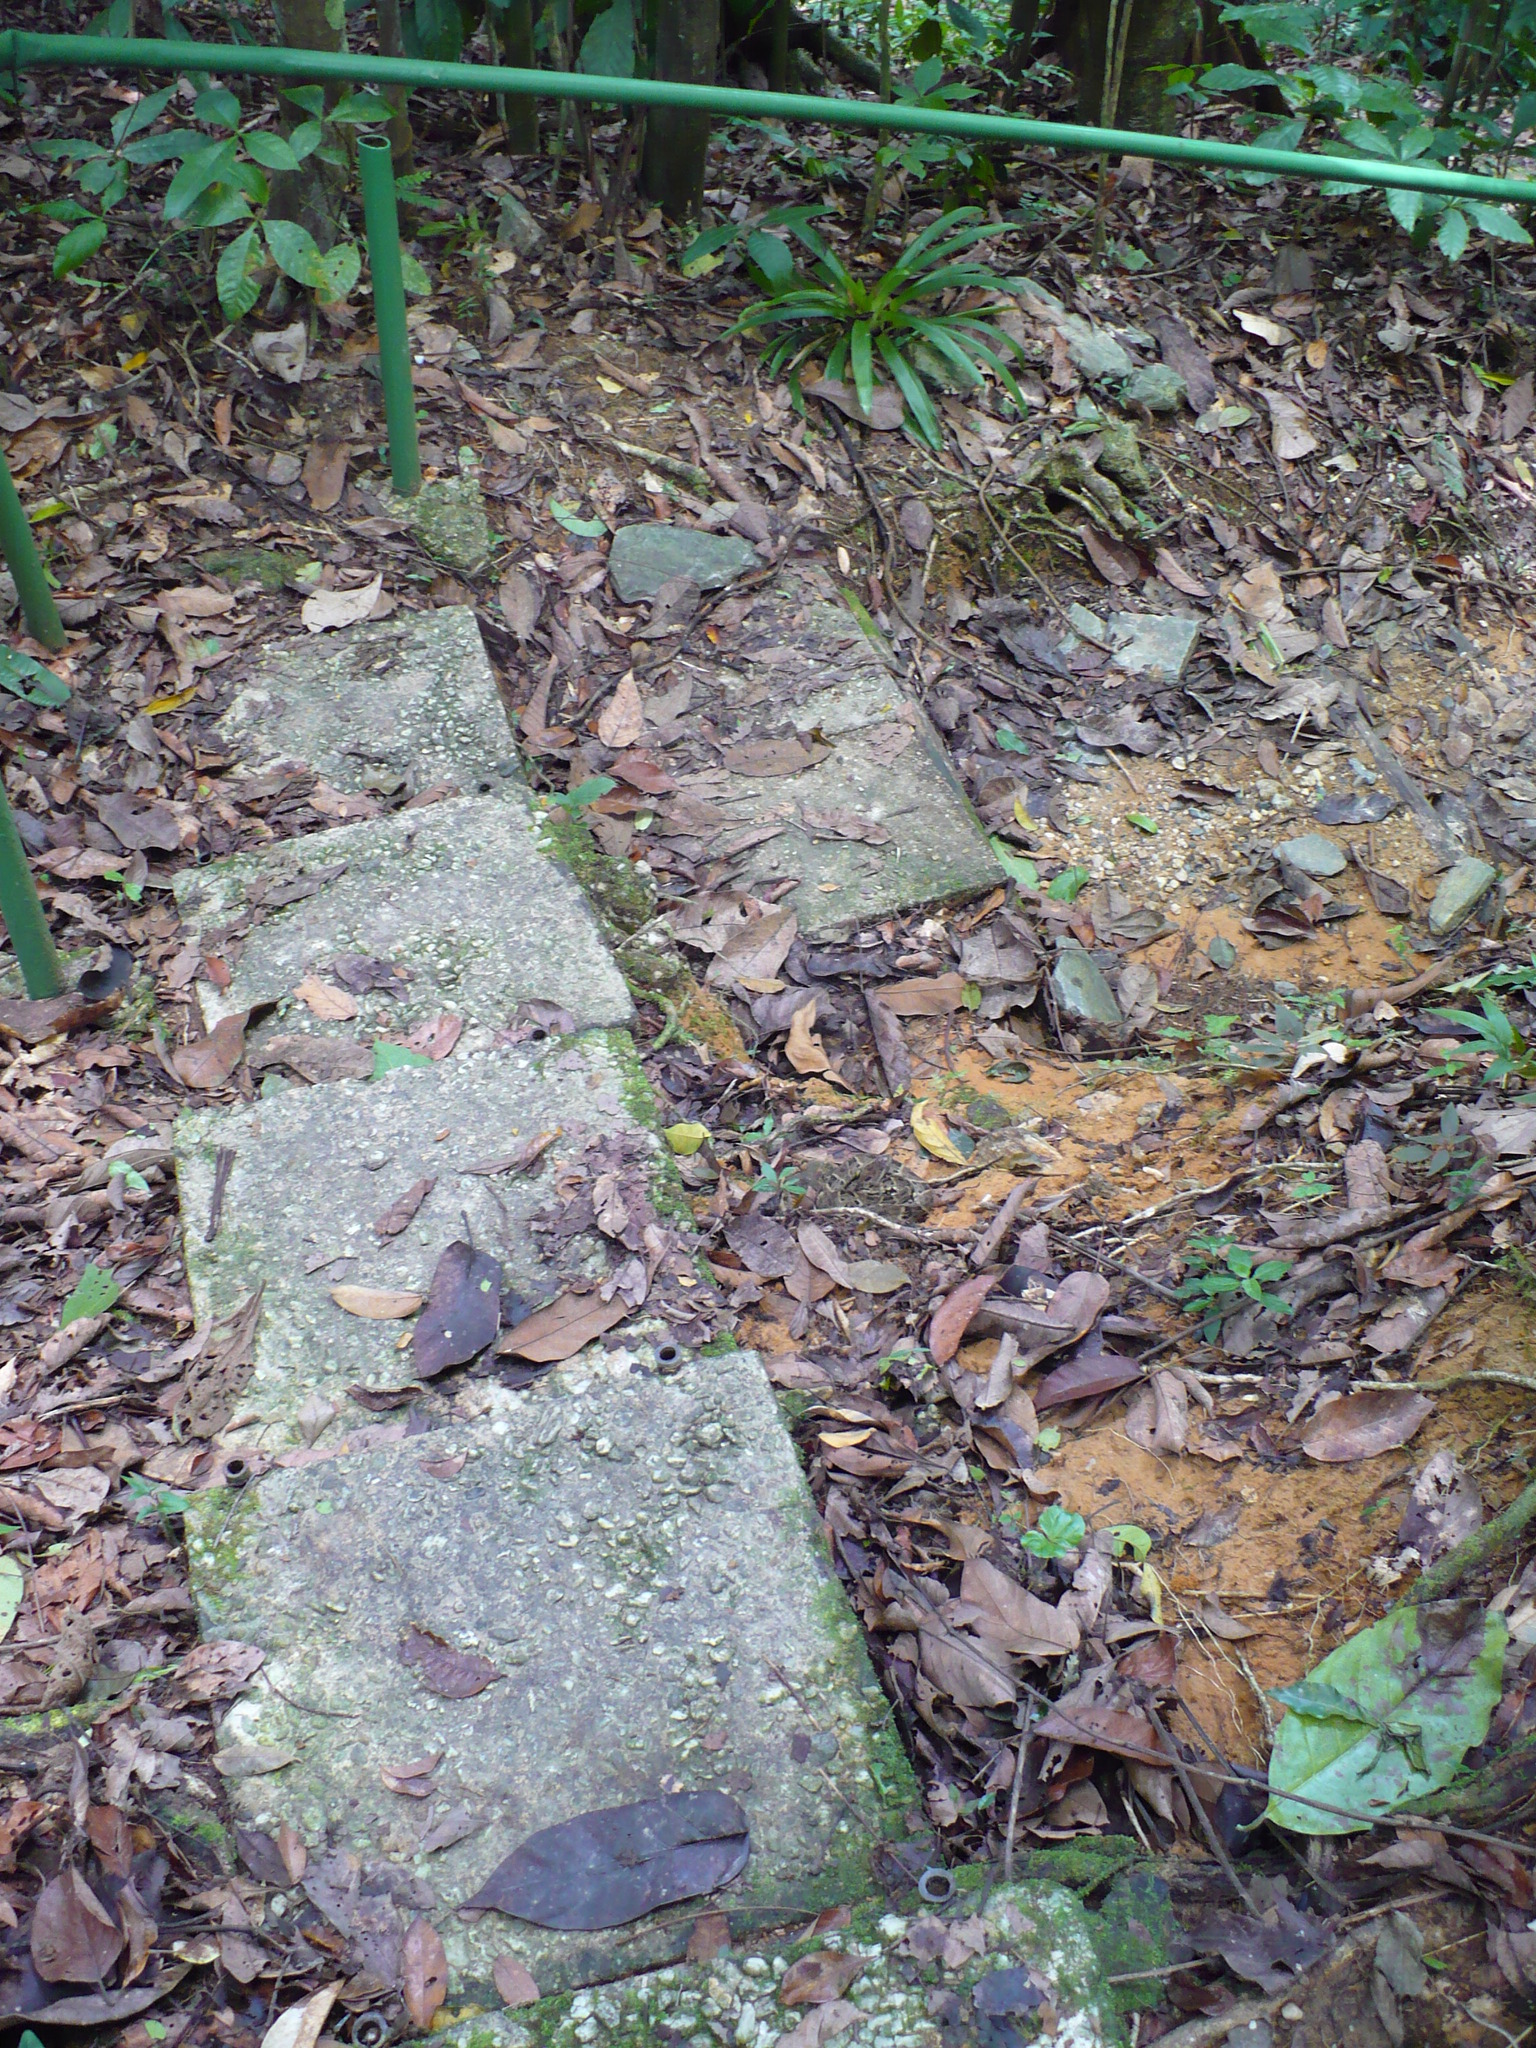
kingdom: Animalia
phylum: Chordata
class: Squamata
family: Viperidae
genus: Bothrops
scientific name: Bothrops atrox
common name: Common lancehead
